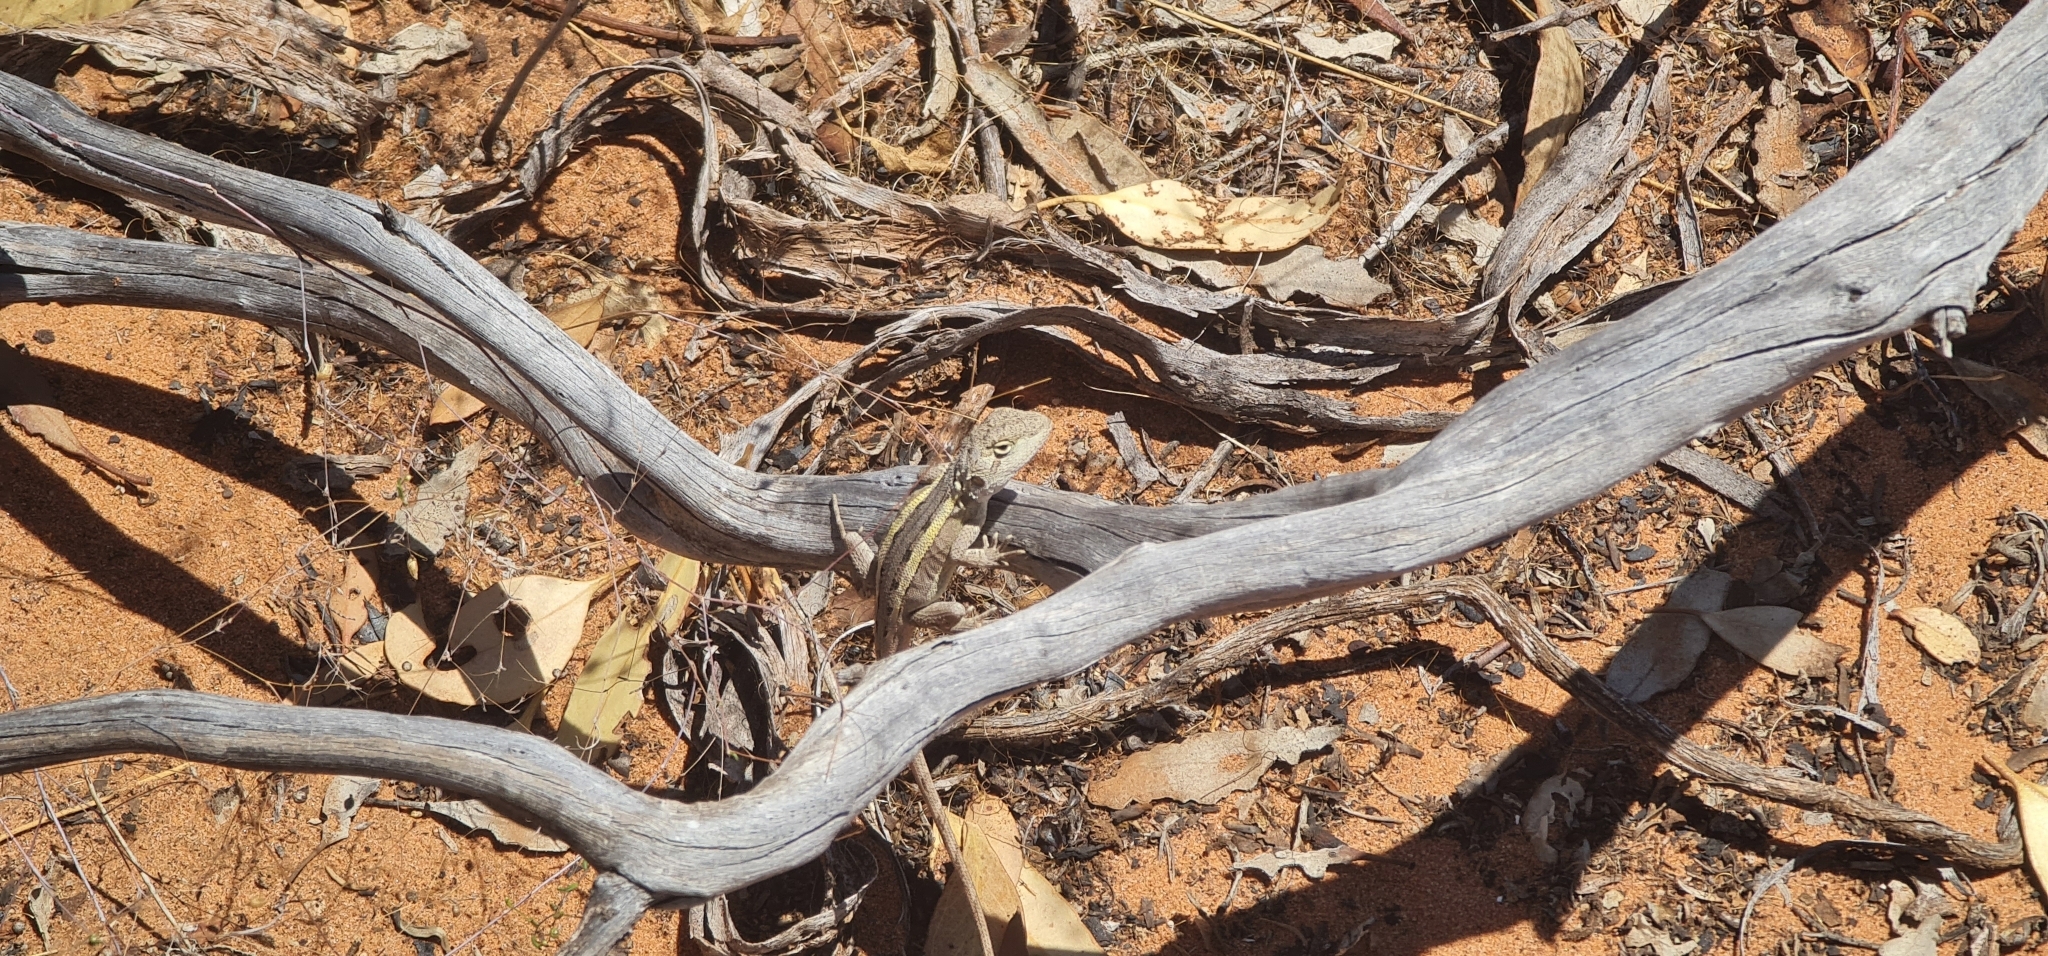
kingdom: Animalia
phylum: Chordata
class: Squamata
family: Agamidae
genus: Diporiphora
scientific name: Diporiphora nobbi
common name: Nobbi
